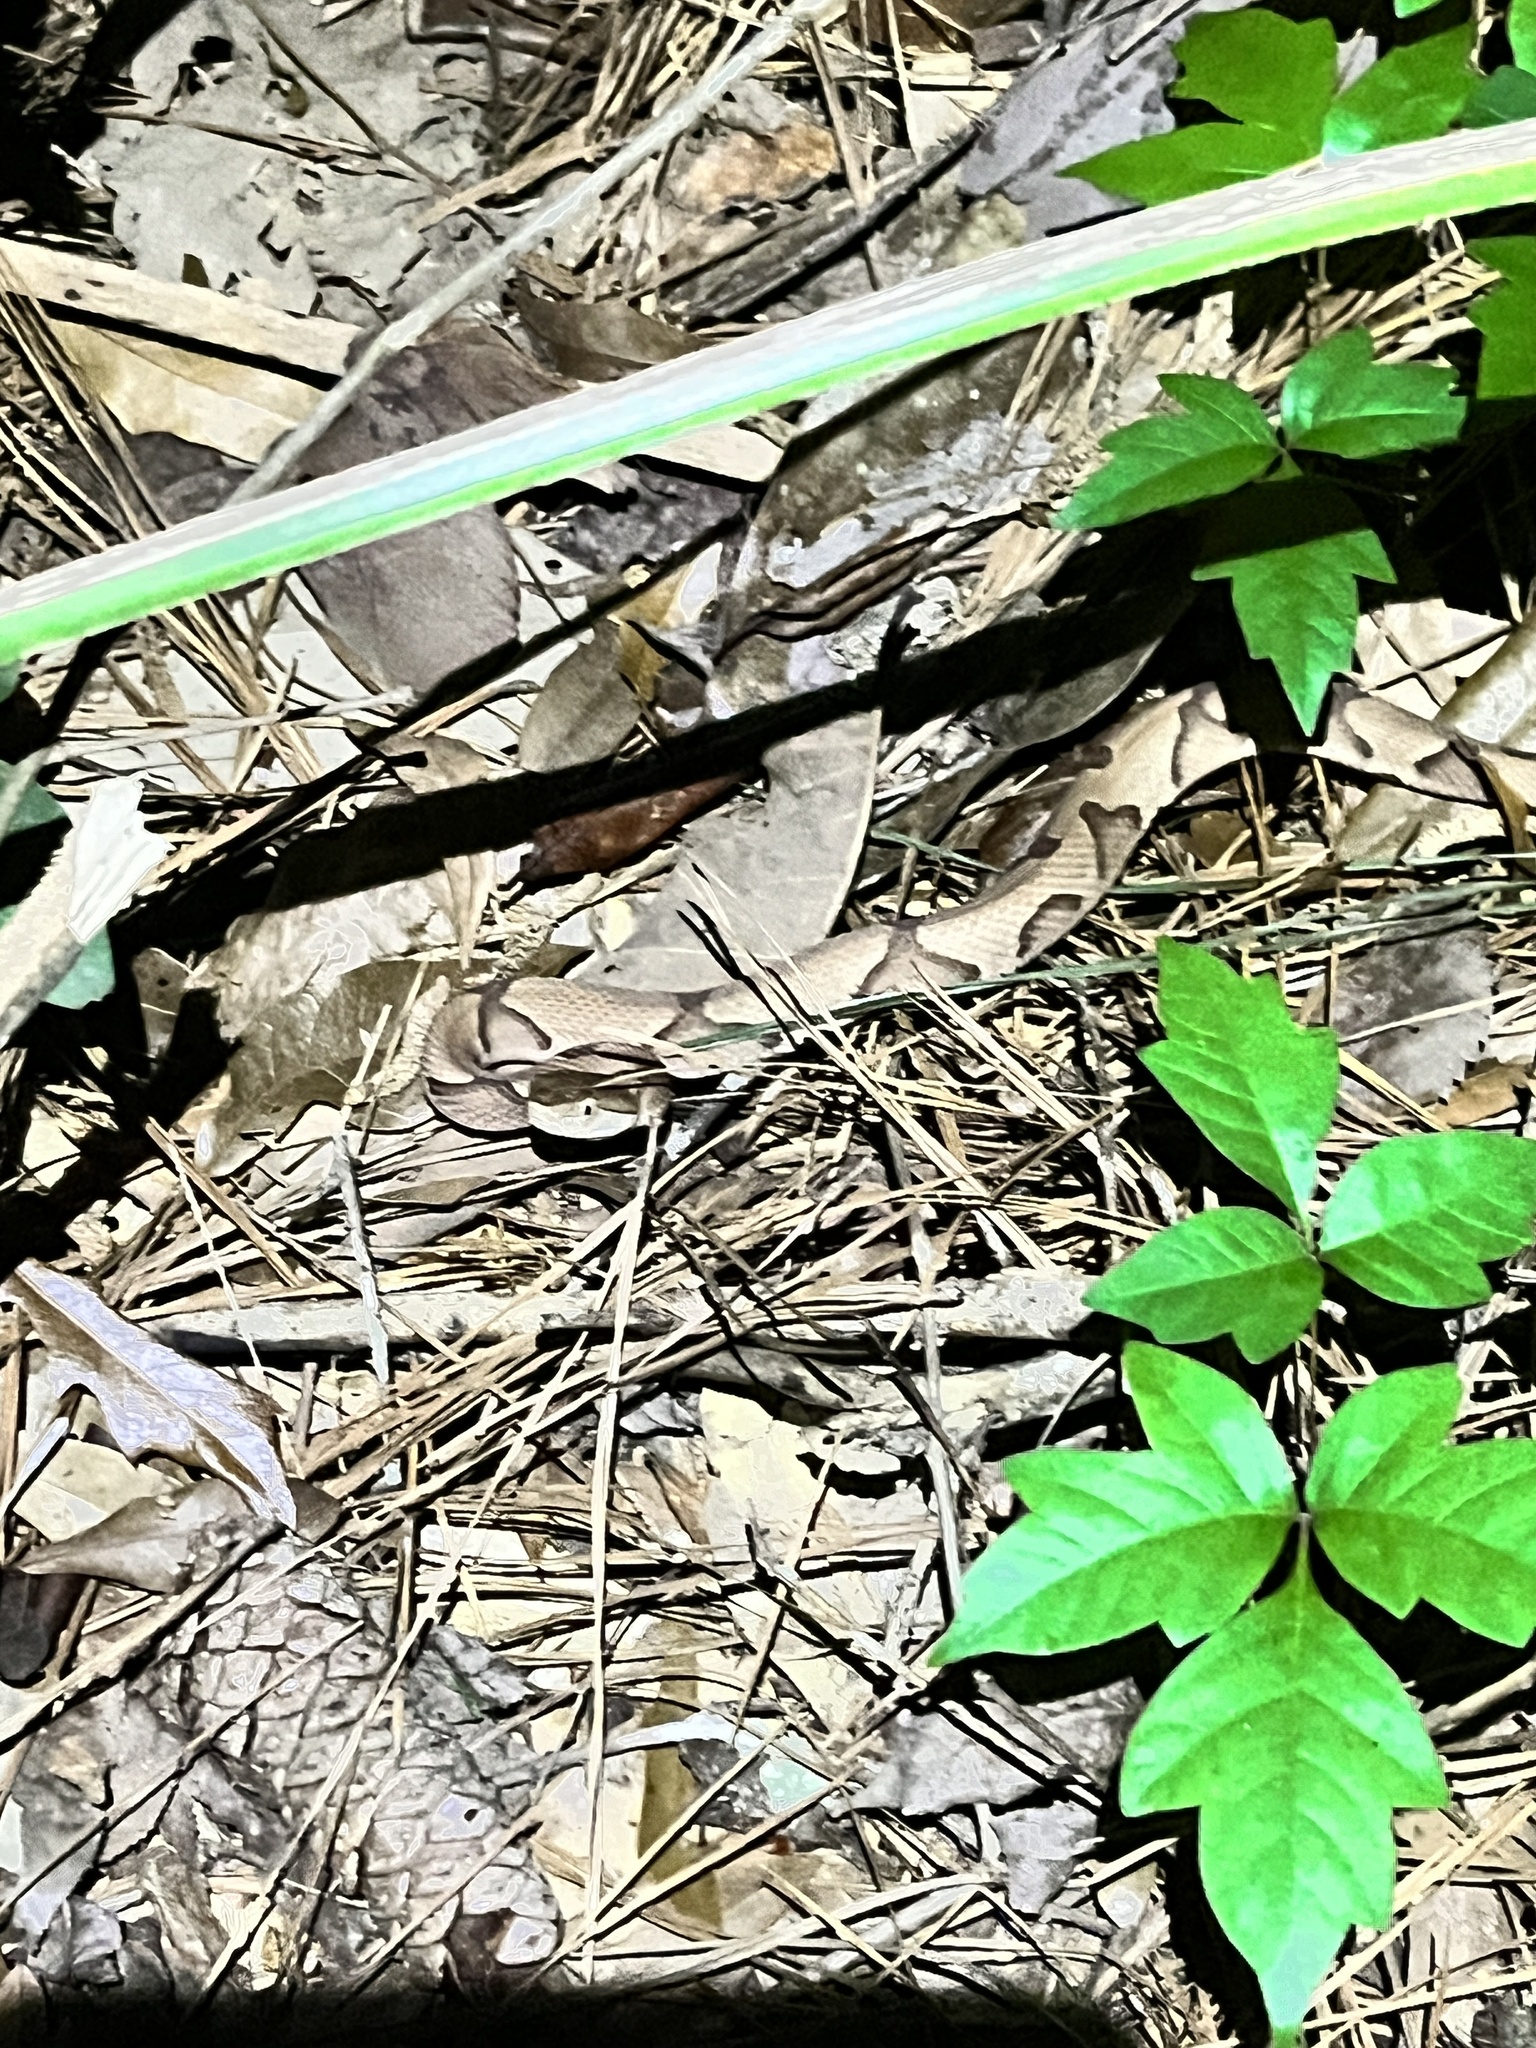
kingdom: Animalia
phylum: Chordata
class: Squamata
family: Viperidae
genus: Agkistrodon
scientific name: Agkistrodon contortrix
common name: Northern copperhead
